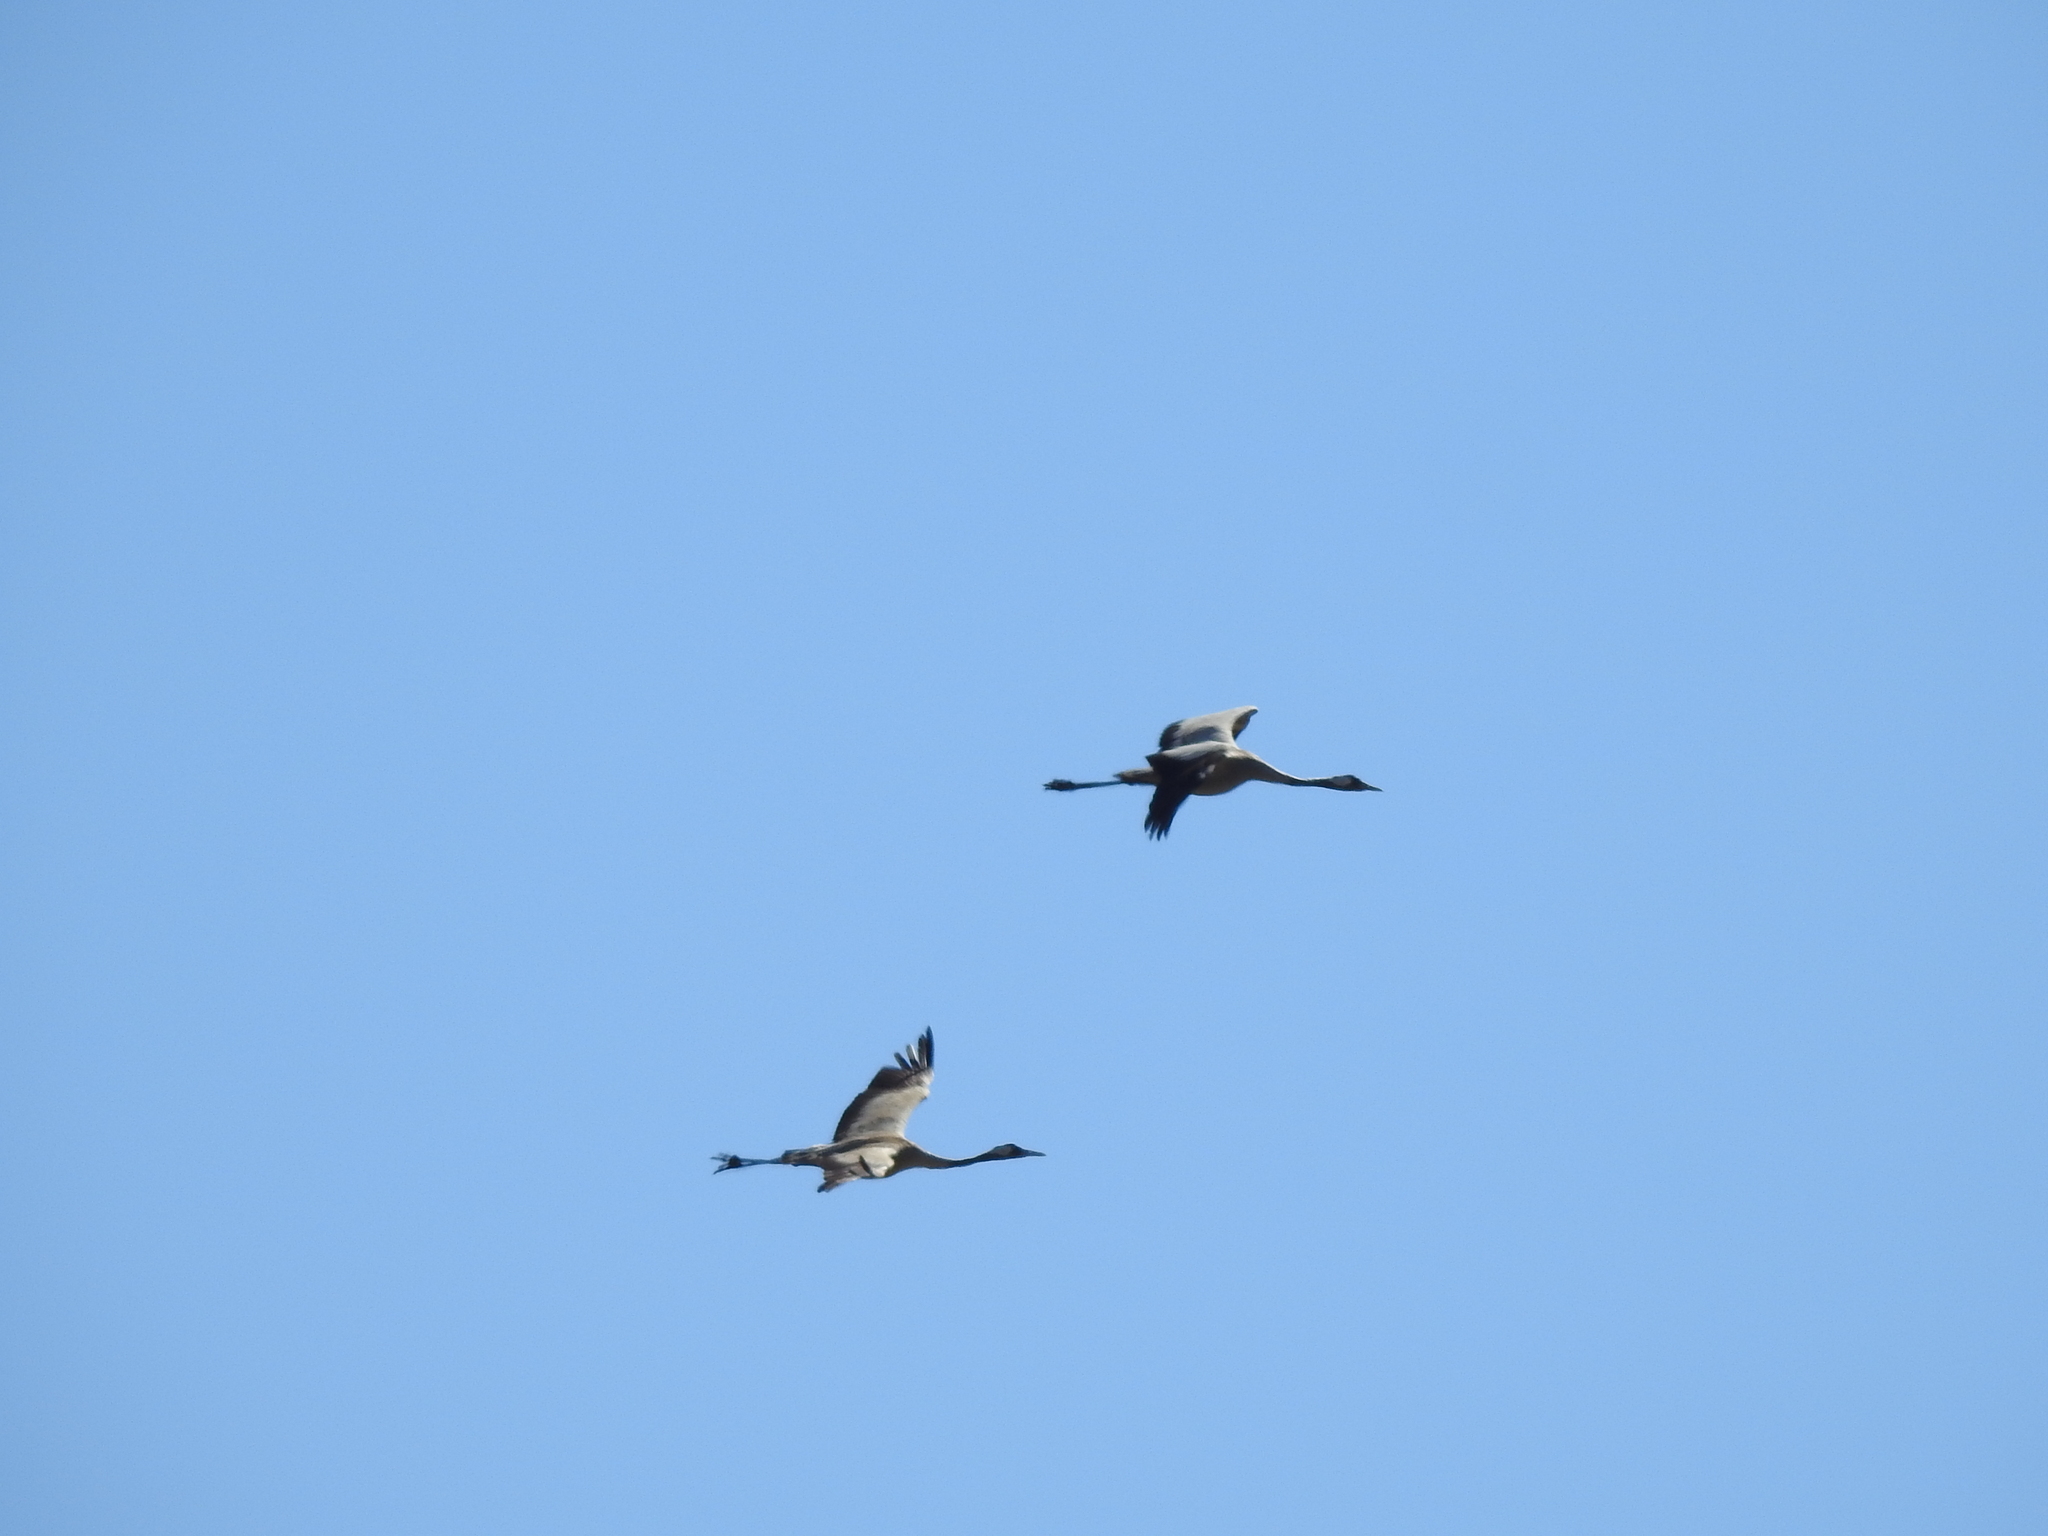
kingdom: Animalia
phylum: Chordata
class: Aves
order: Gruiformes
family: Gruidae
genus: Grus
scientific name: Grus grus
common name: Common crane
